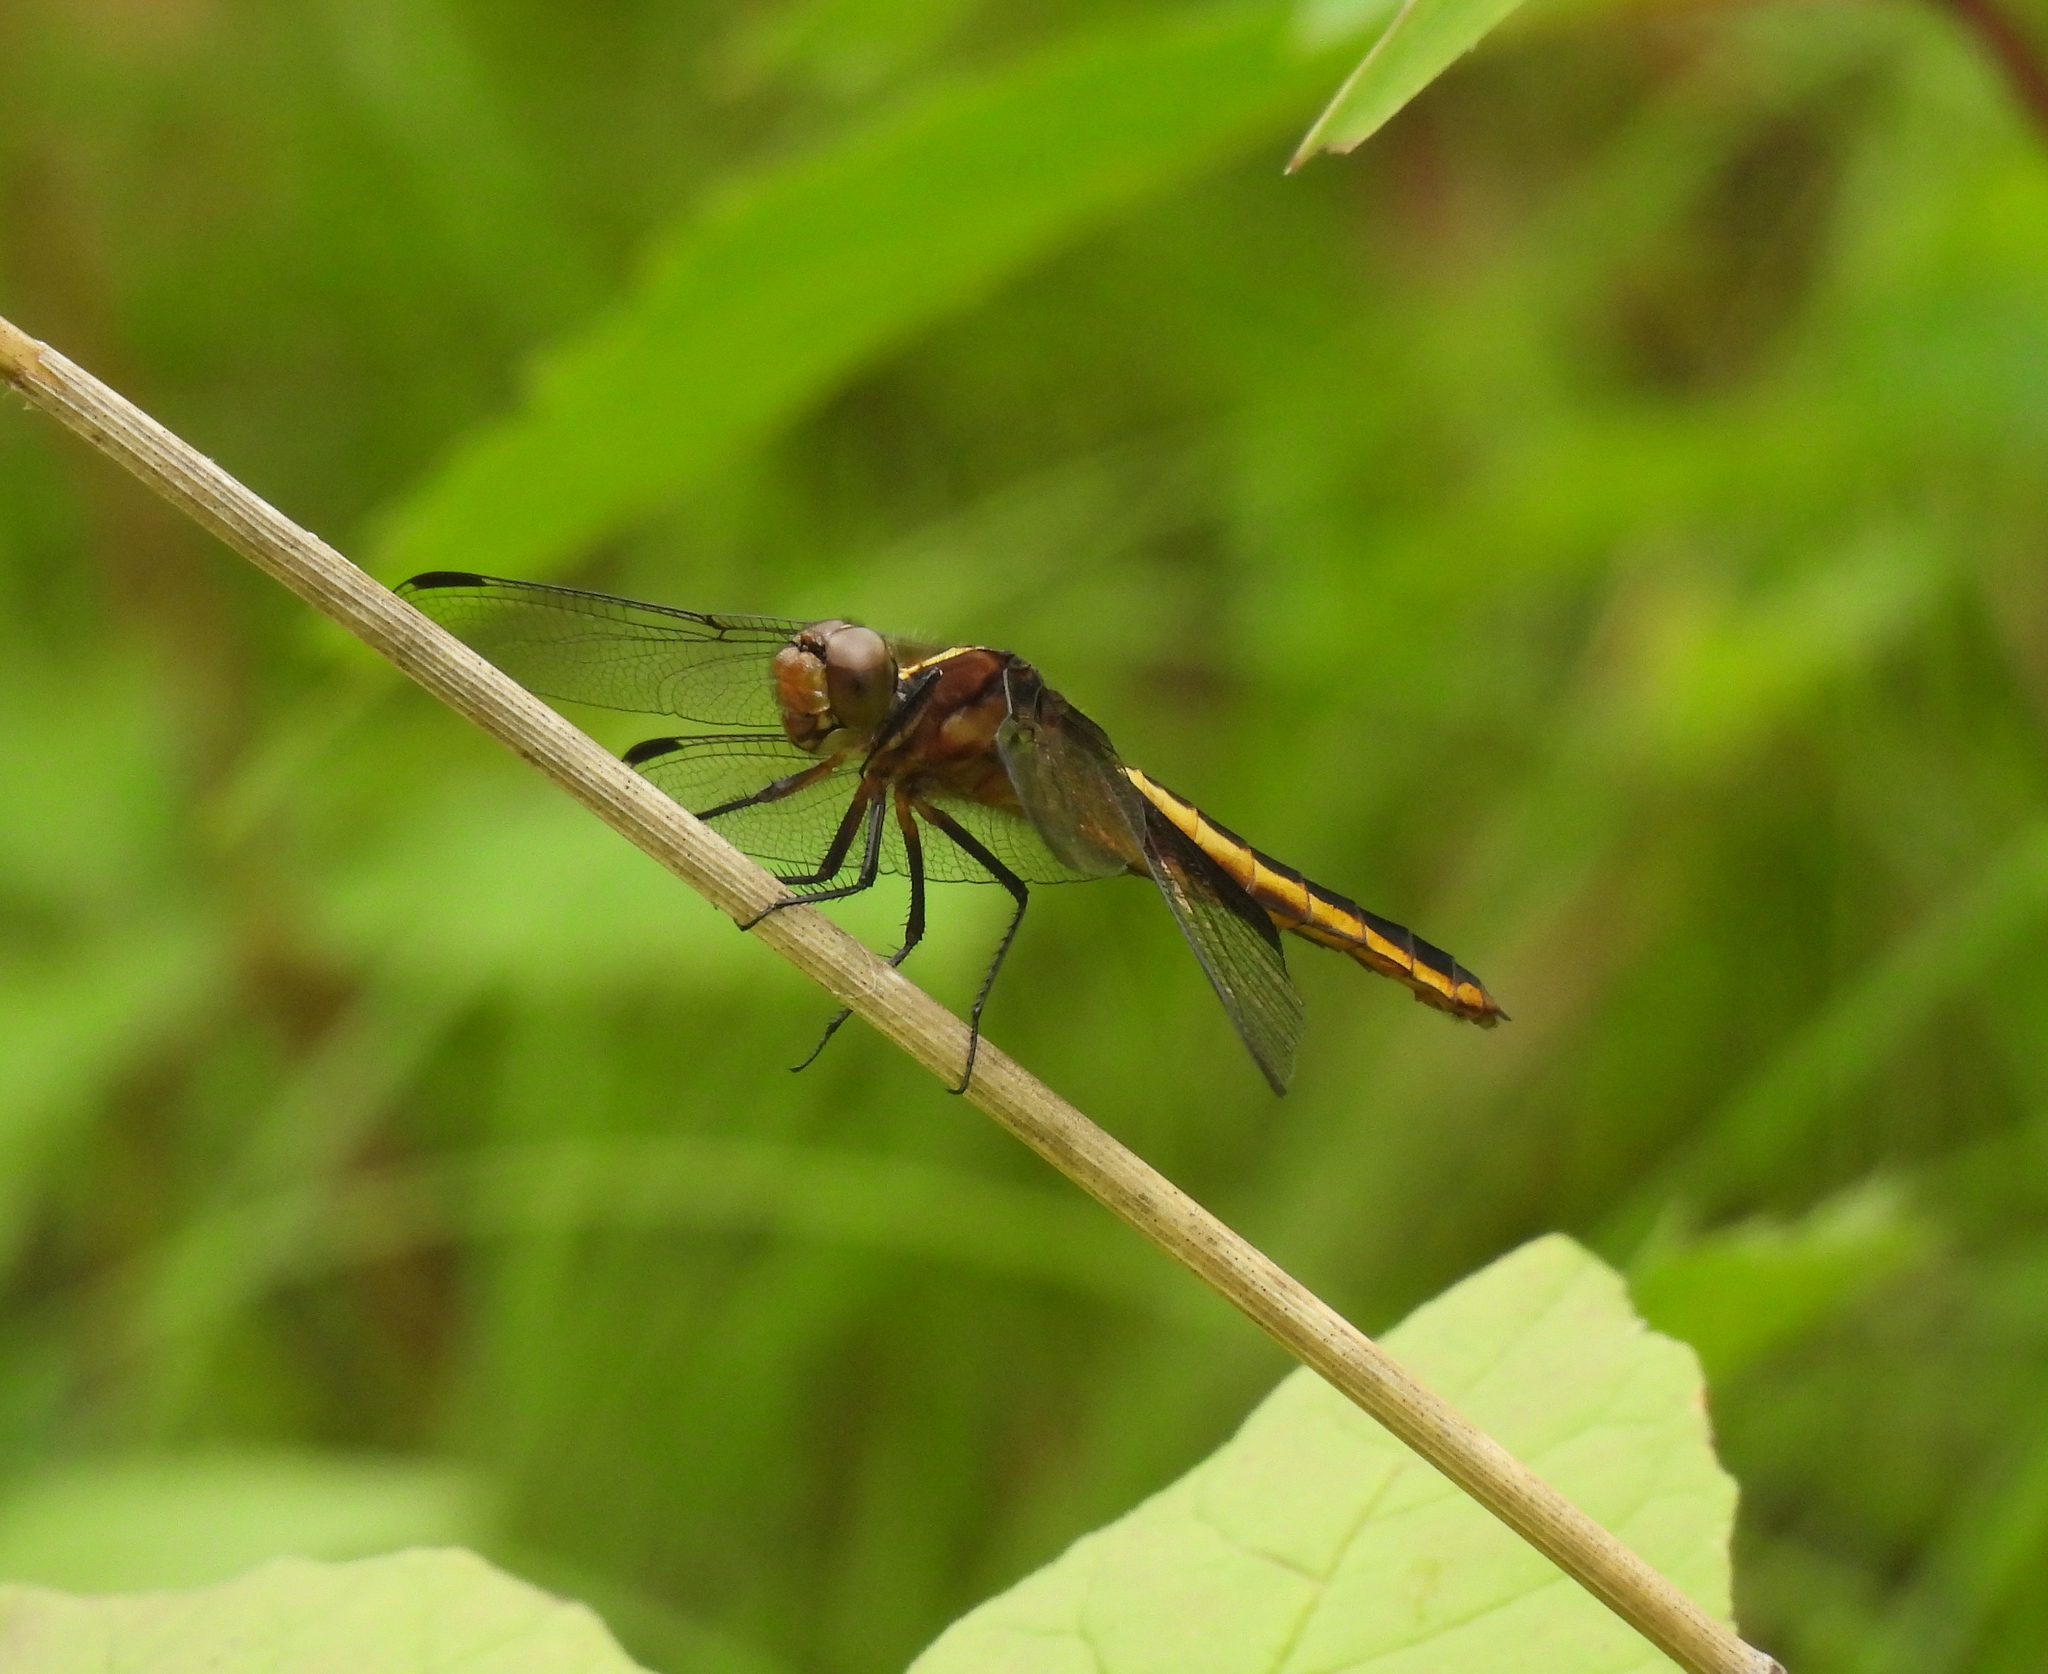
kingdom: Animalia
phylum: Arthropoda
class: Insecta
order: Odonata
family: Libellulidae
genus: Libellula
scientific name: Libellula luctuosa
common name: Widow skimmer
